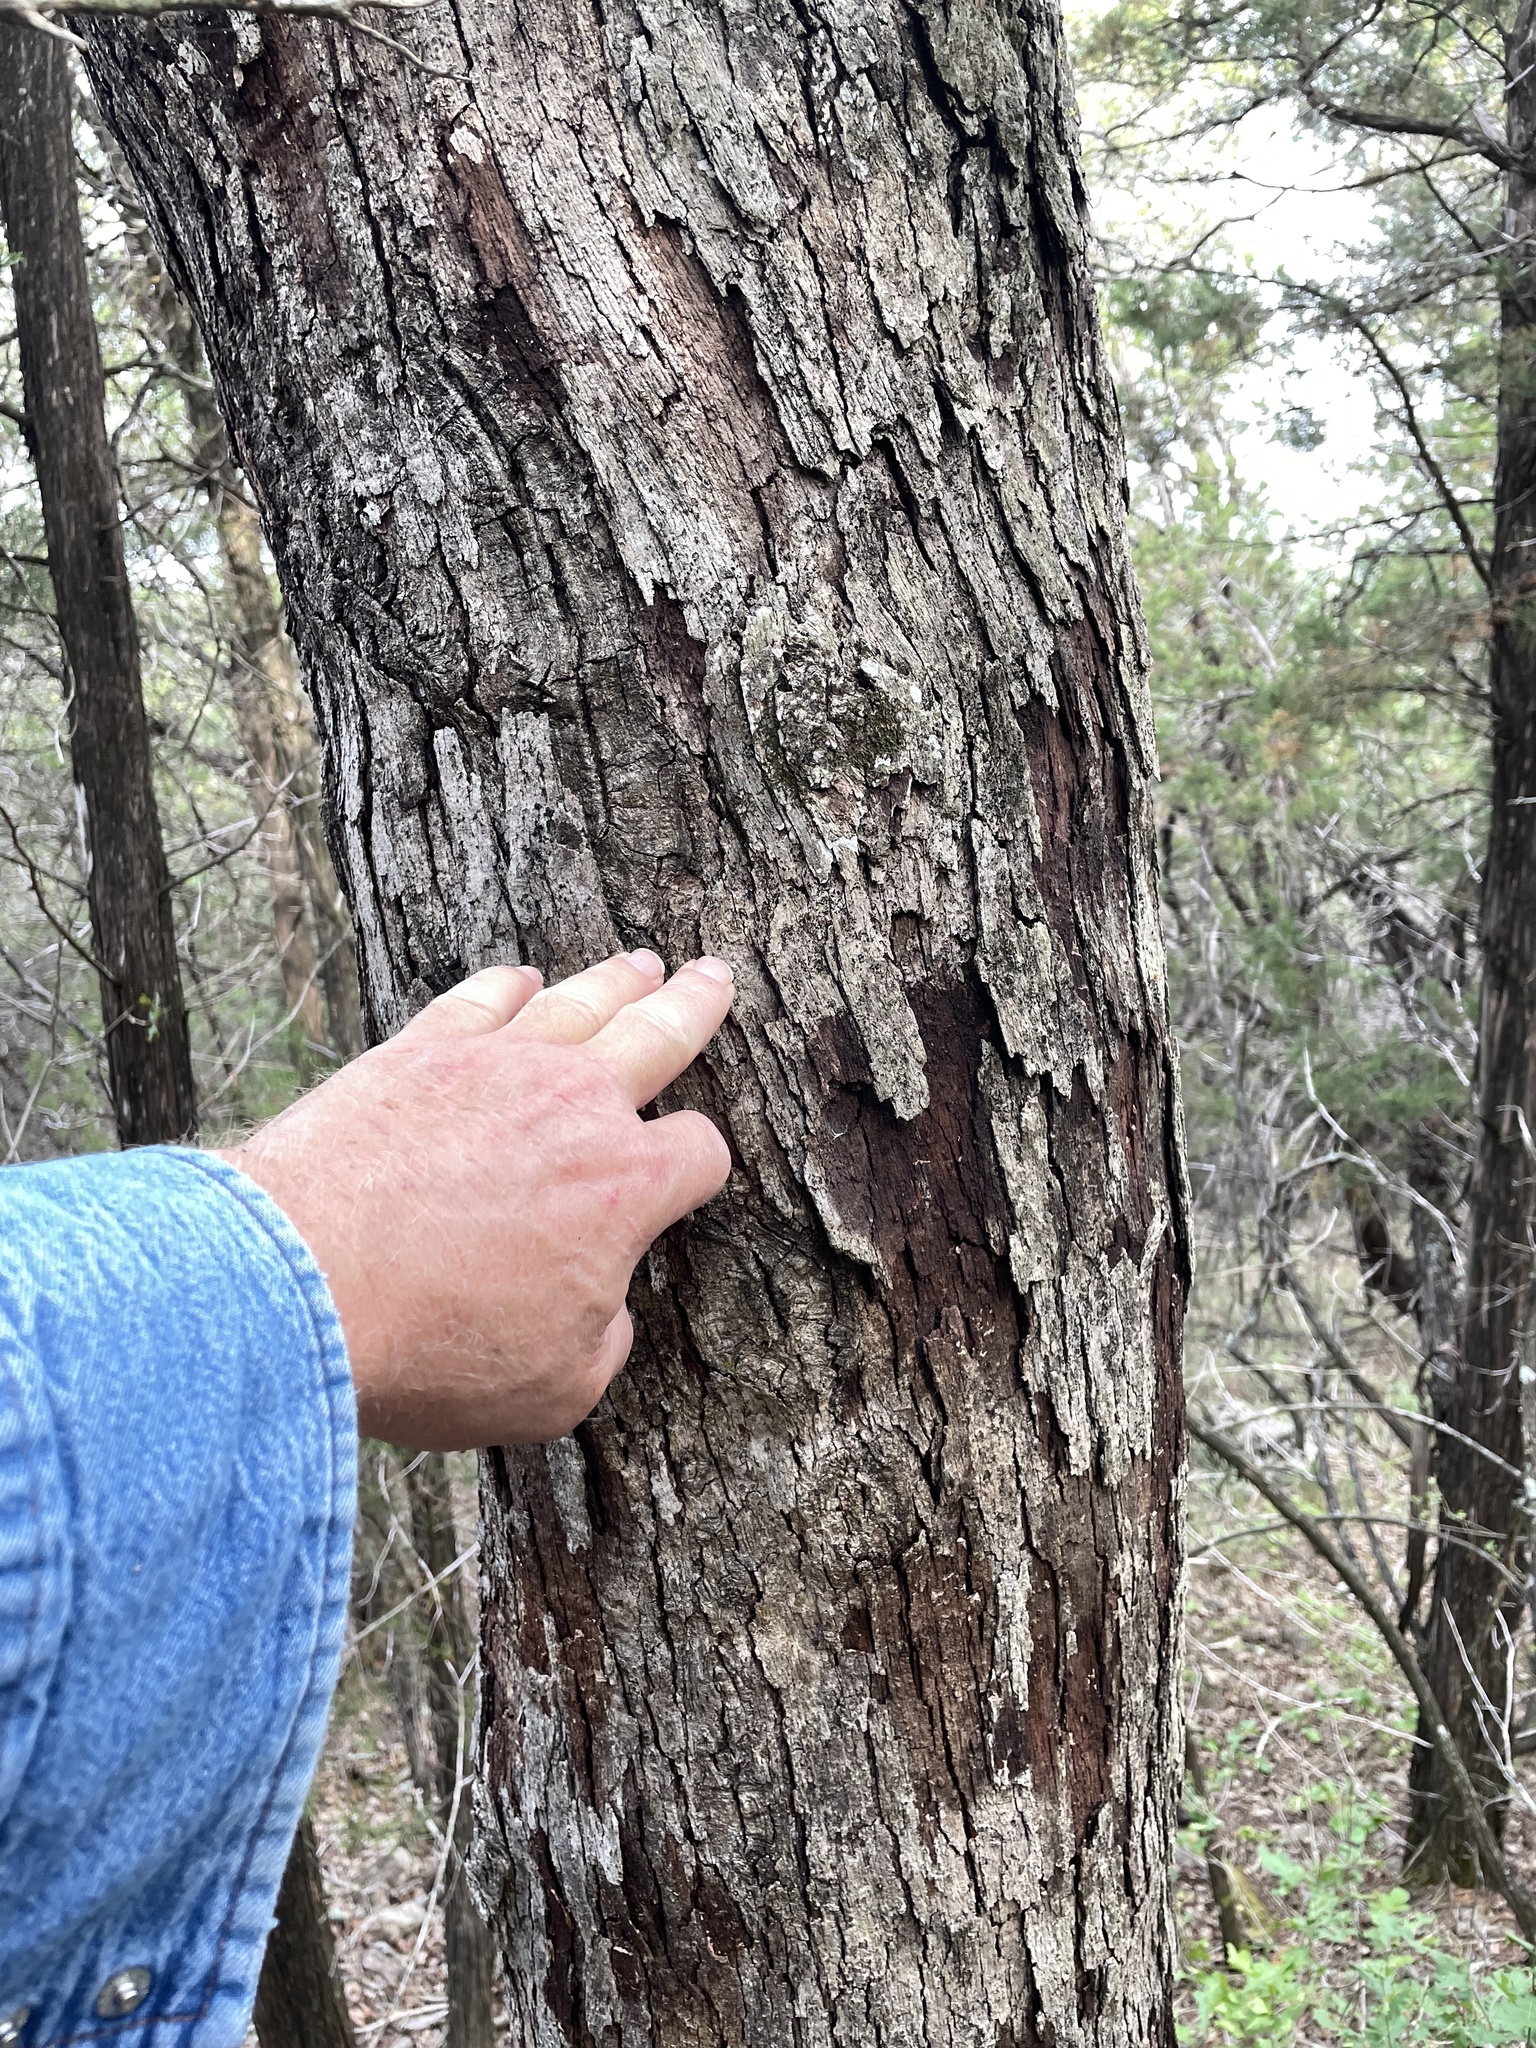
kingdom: Plantae
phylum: Tracheophyta
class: Magnoliopsida
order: Fagales
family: Fagaceae
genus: Quercus
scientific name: Quercus sinuata
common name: Durand oak
